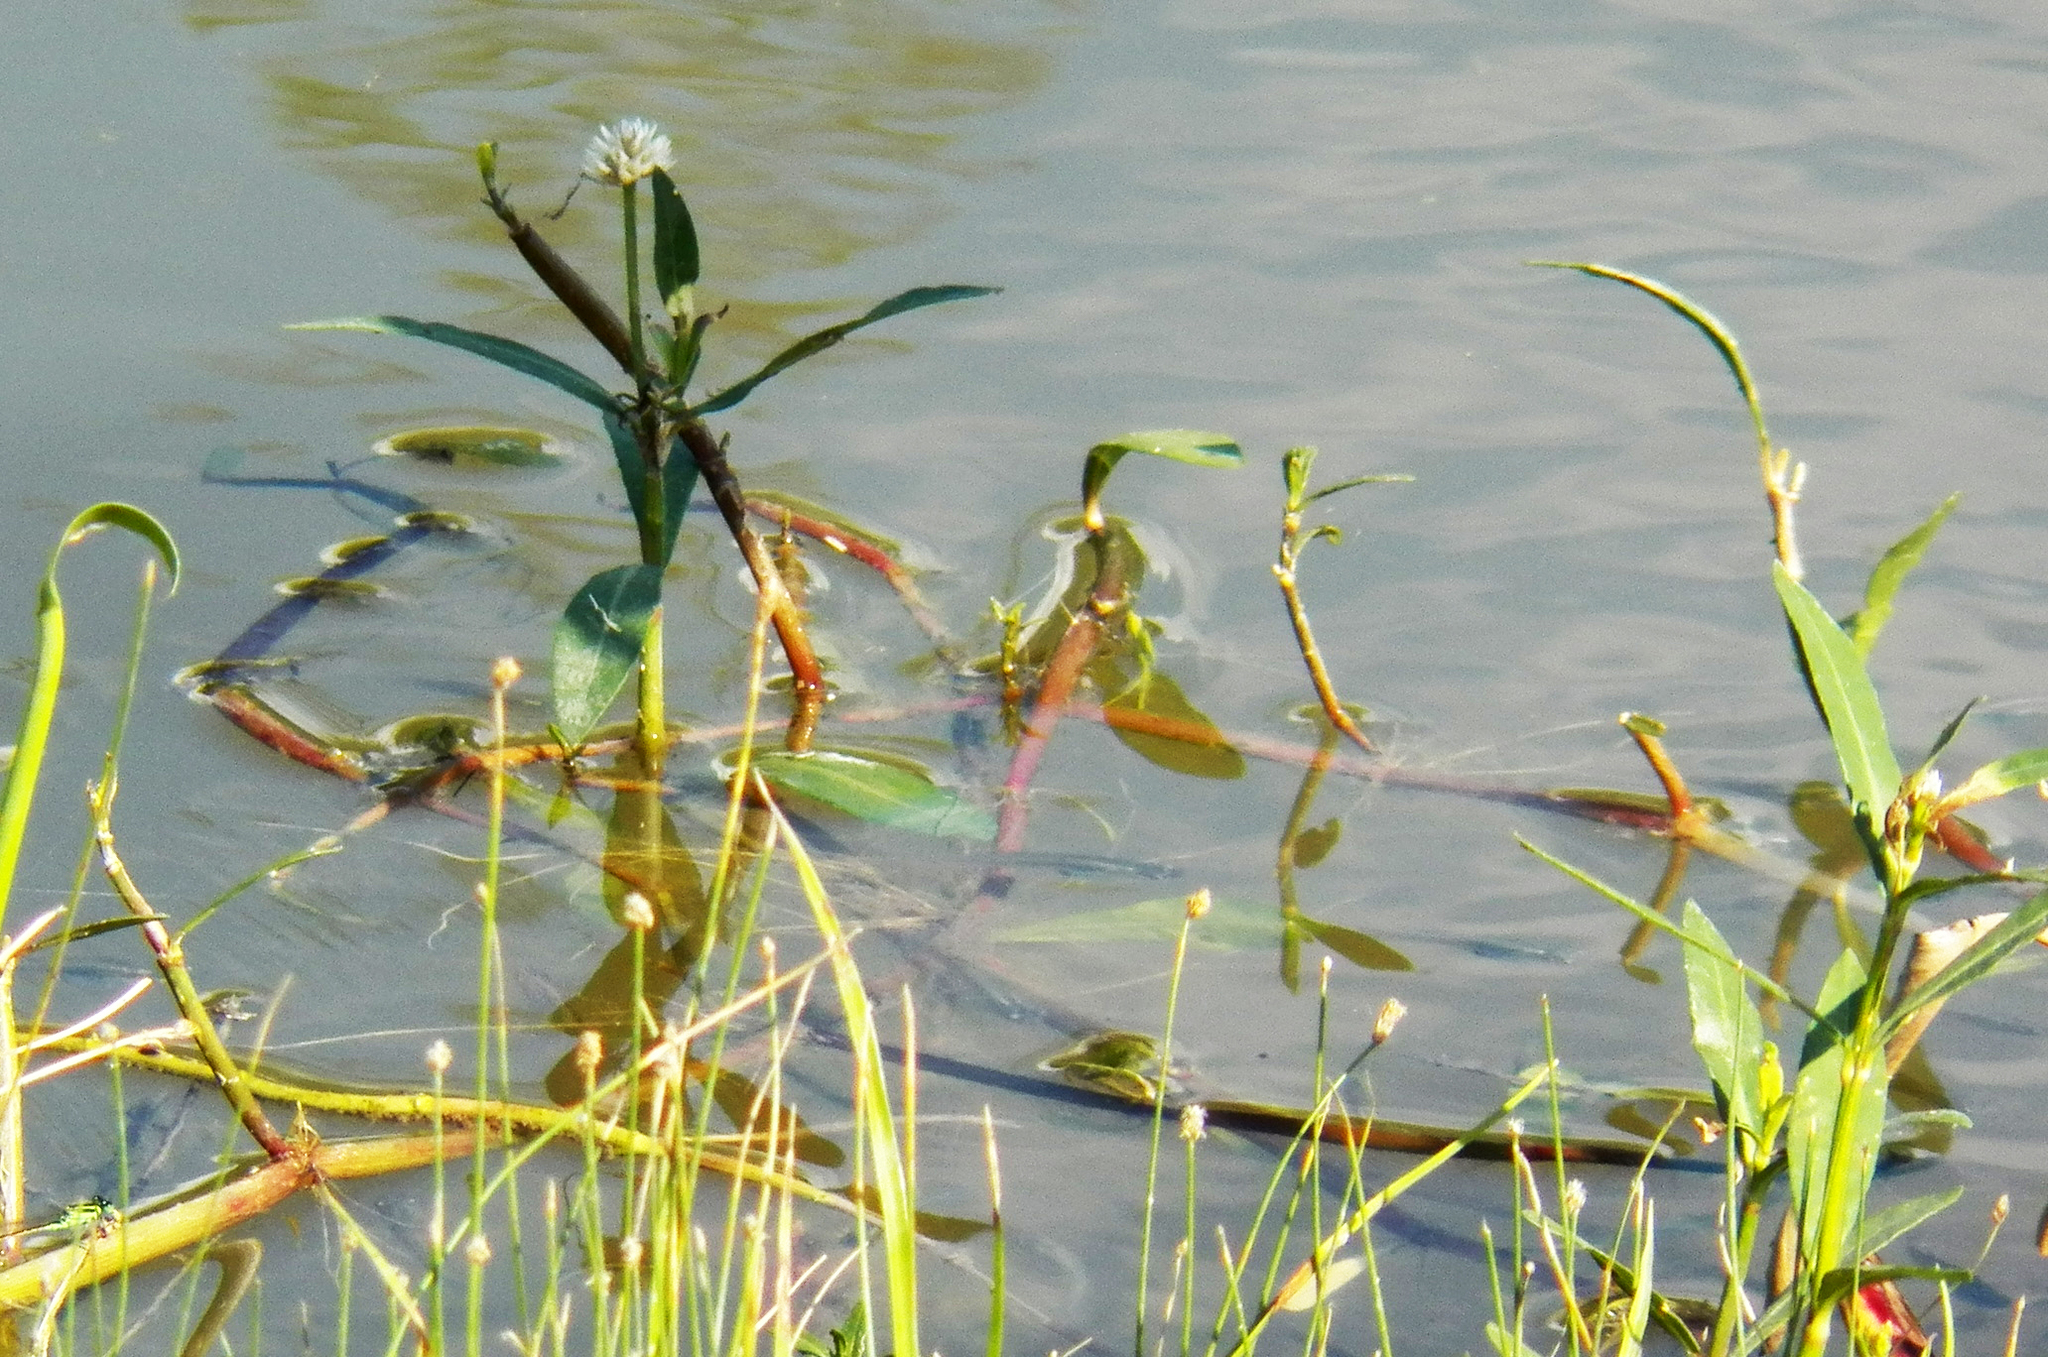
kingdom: Plantae
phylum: Tracheophyta
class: Magnoliopsida
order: Caryophyllales
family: Amaranthaceae
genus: Alternanthera
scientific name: Alternanthera philoxeroides
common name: Alligatorweed
